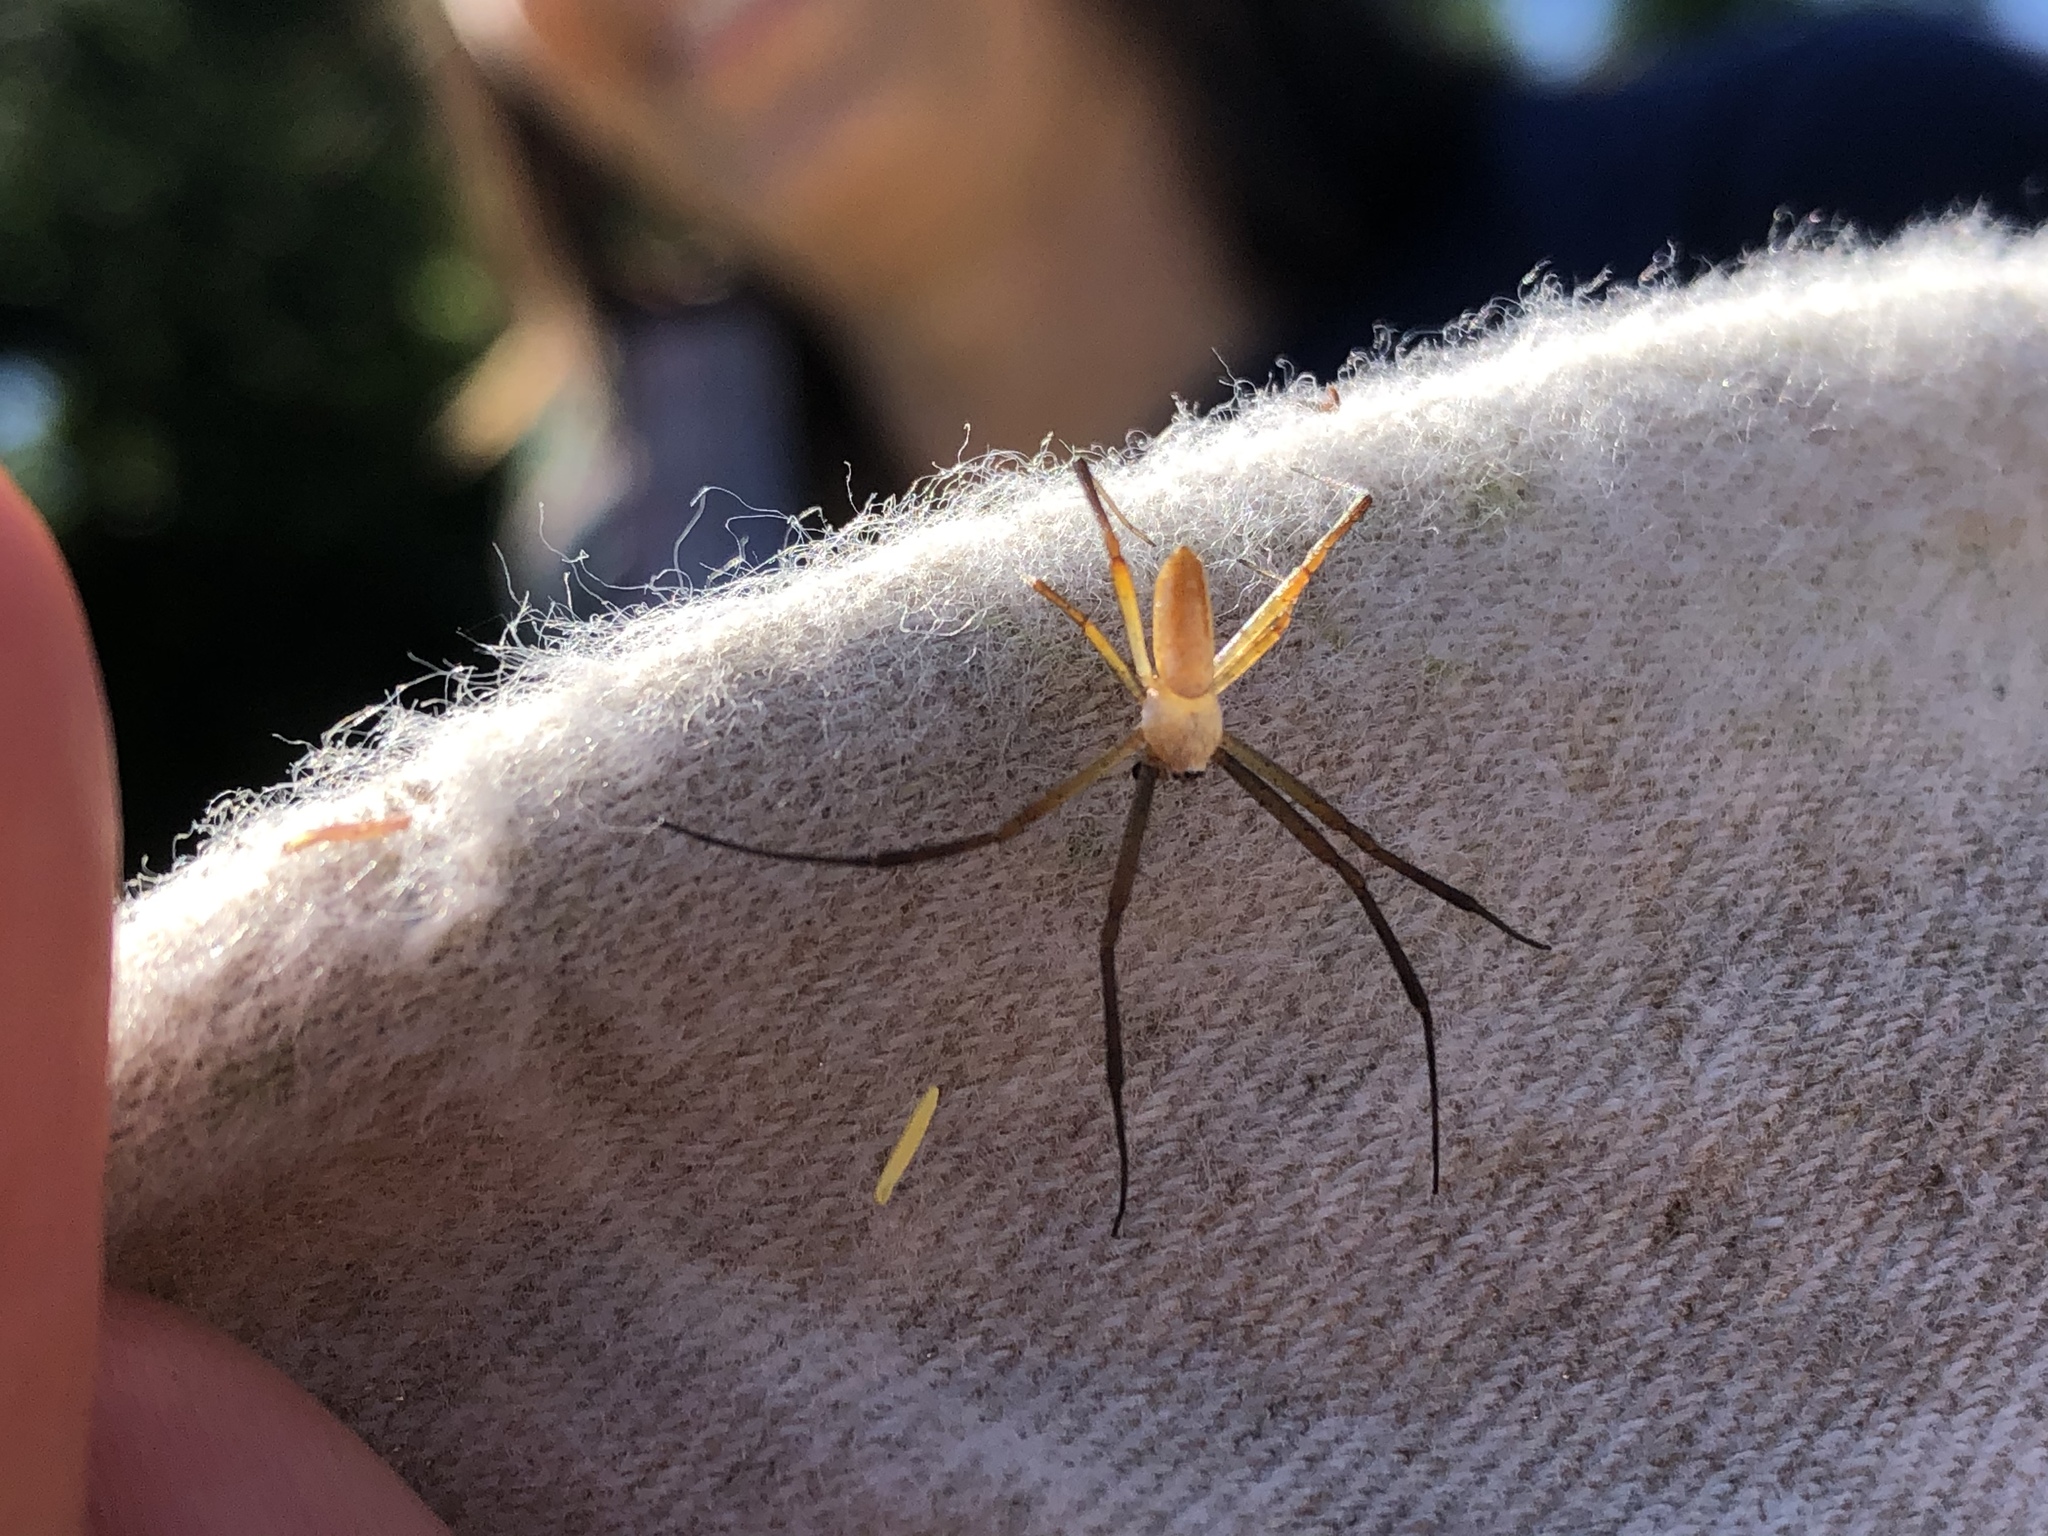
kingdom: Animalia
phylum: Arthropoda
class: Arachnida
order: Araneae
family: Araneidae
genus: Argiope
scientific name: Argiope trifasciata
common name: Banded garden spider
